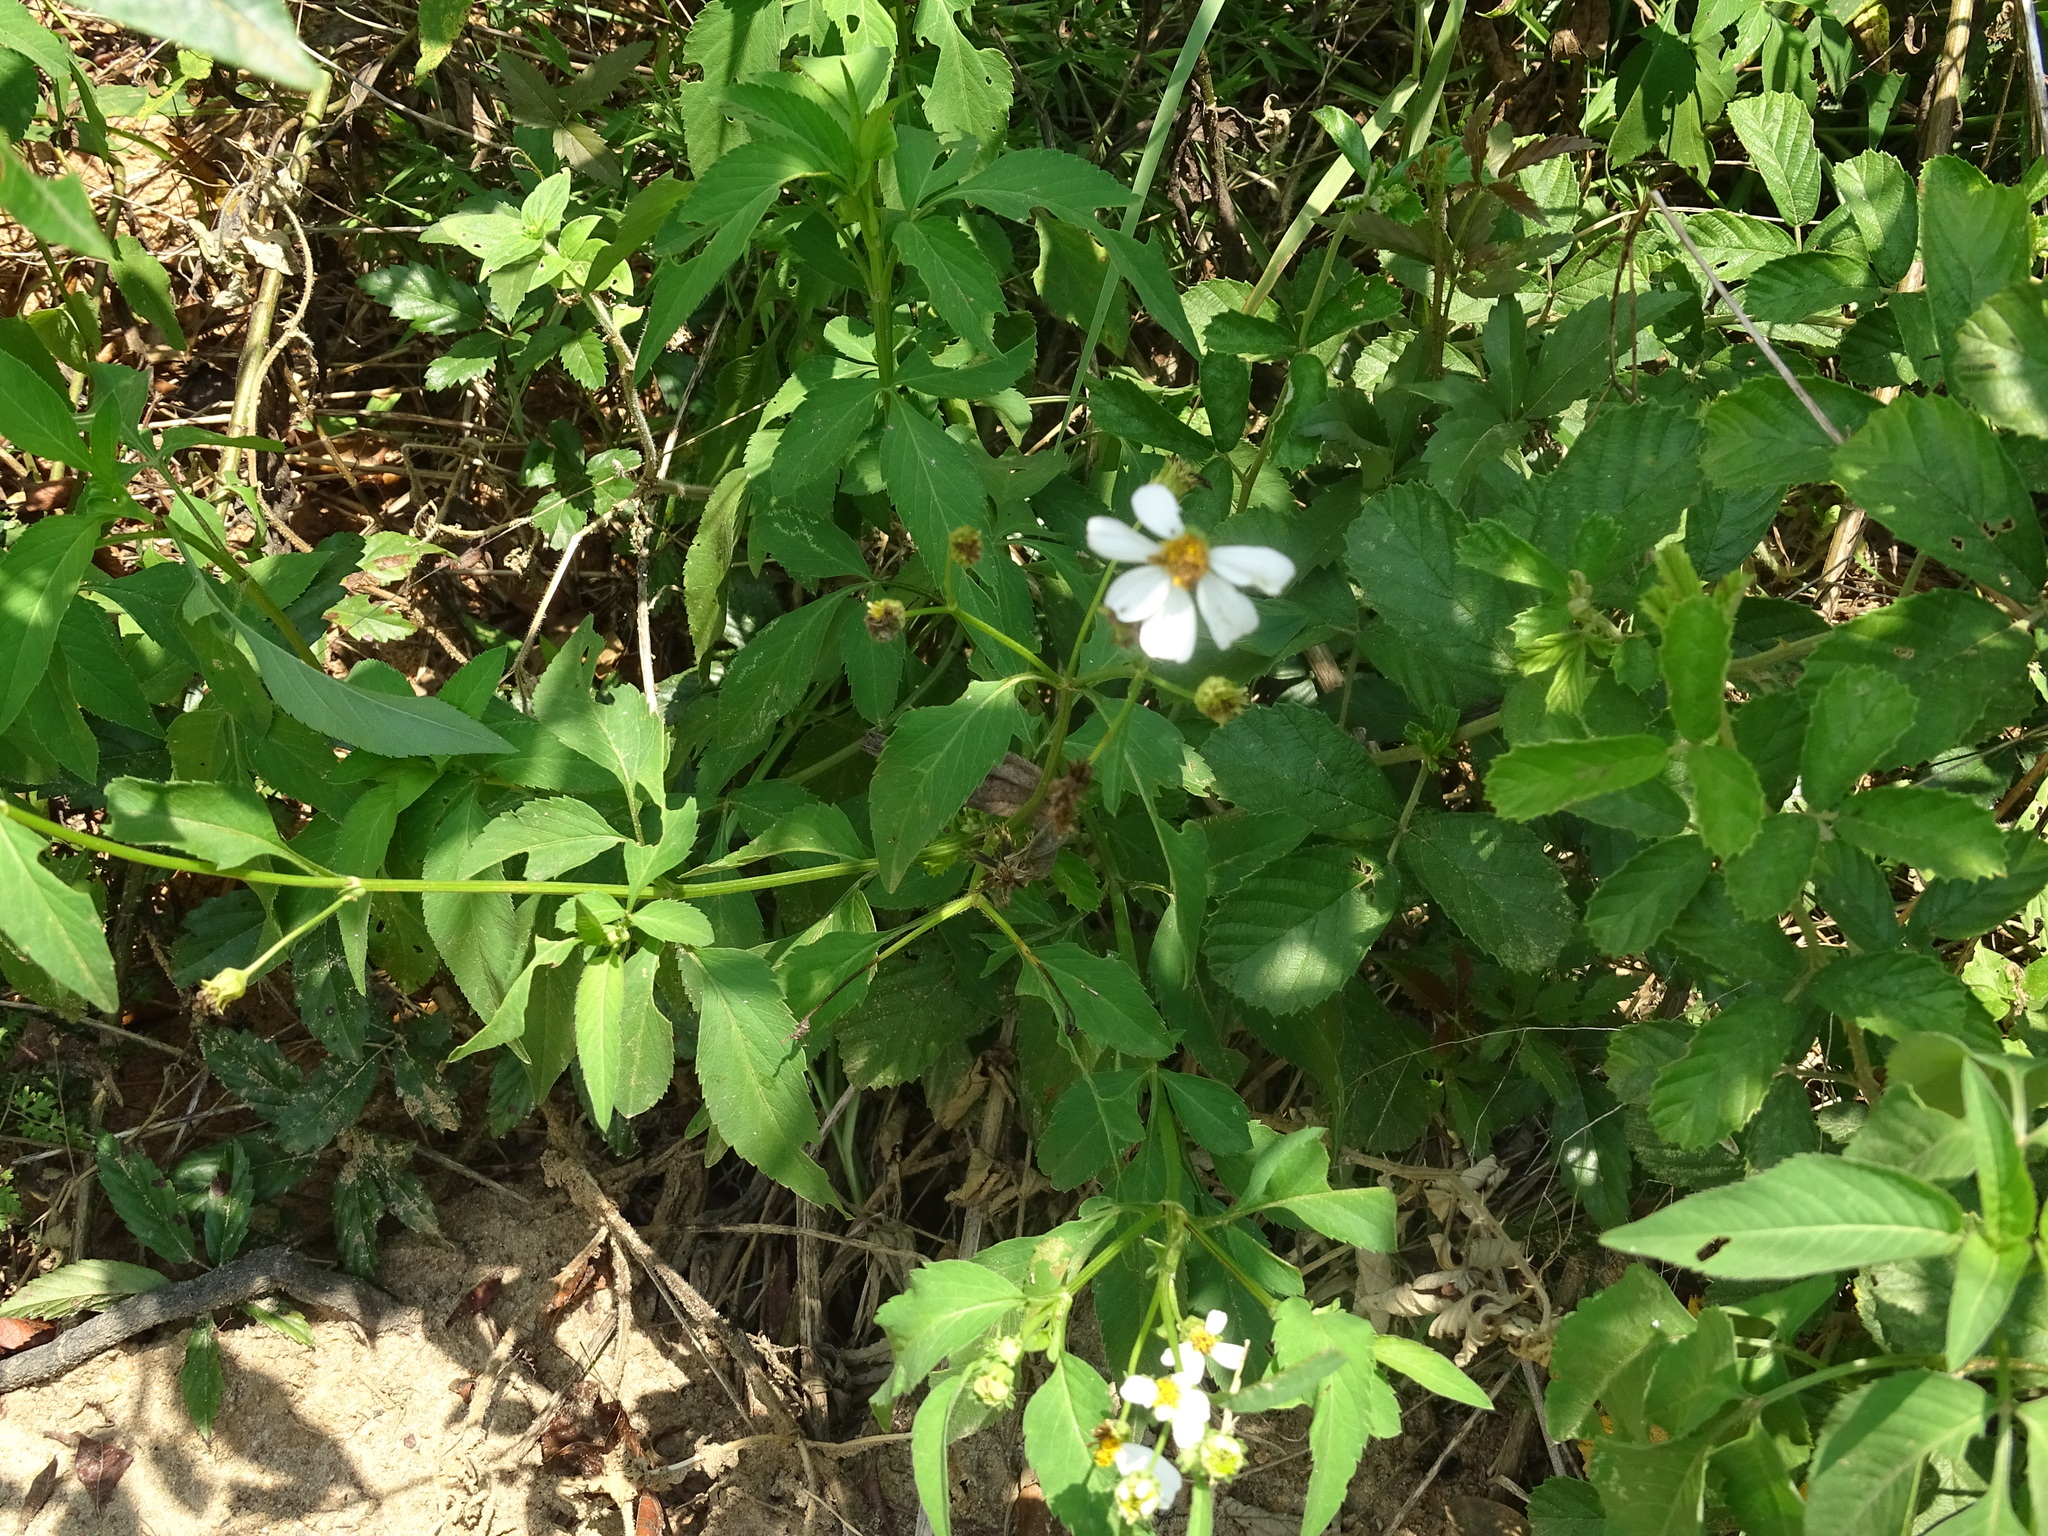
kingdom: Plantae
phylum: Tracheophyta
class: Magnoliopsida
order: Asterales
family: Asteraceae
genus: Bidens
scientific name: Bidens alba
